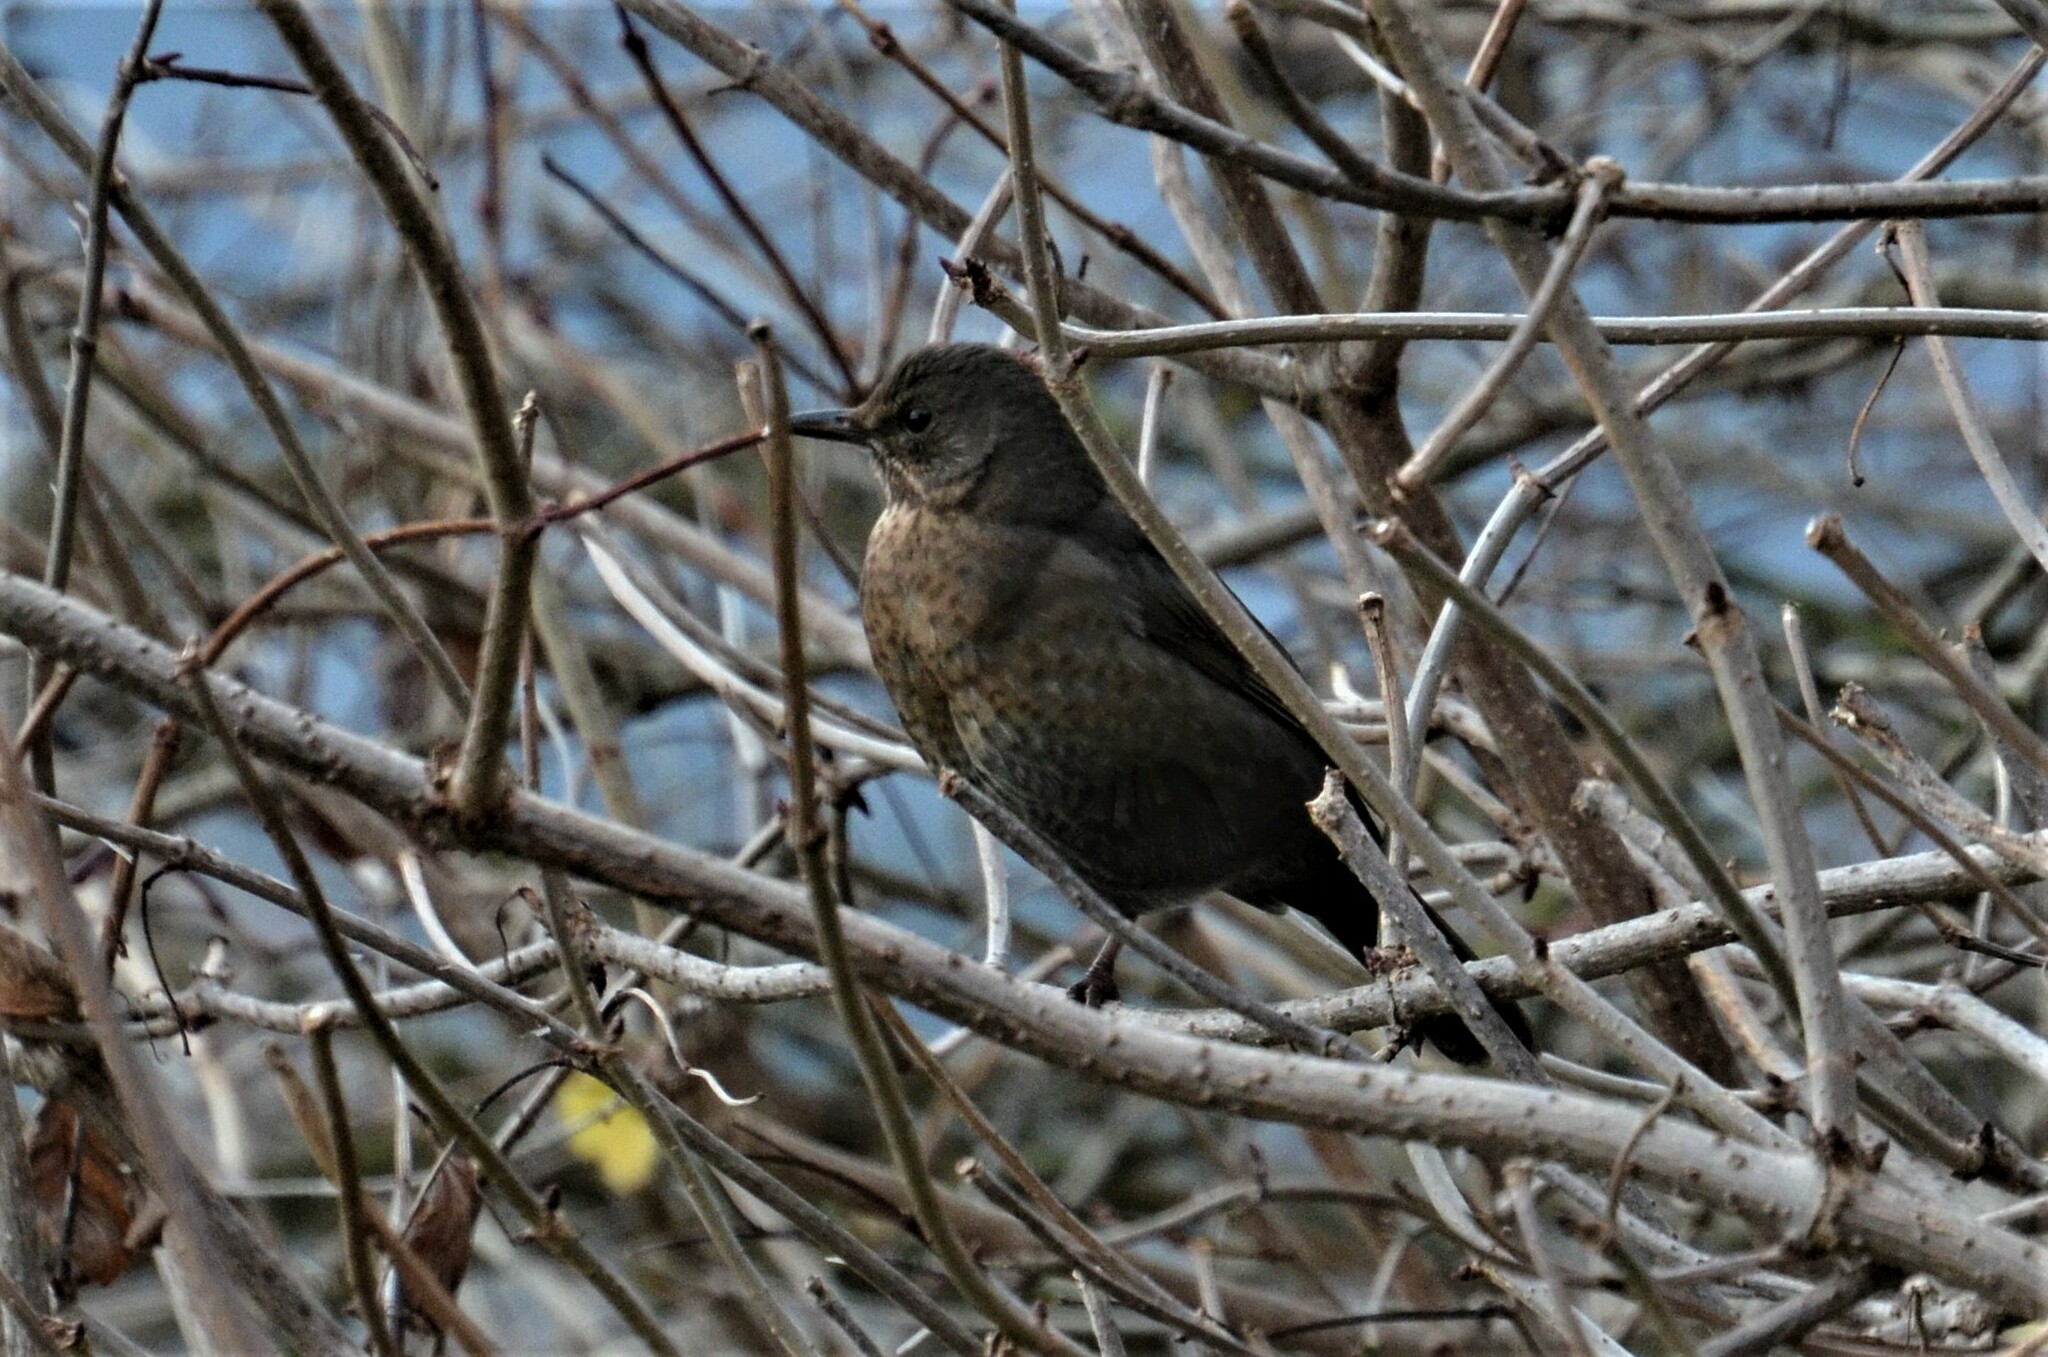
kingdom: Animalia
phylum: Chordata
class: Aves
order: Passeriformes
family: Turdidae
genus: Turdus
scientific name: Turdus merula
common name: Common blackbird
